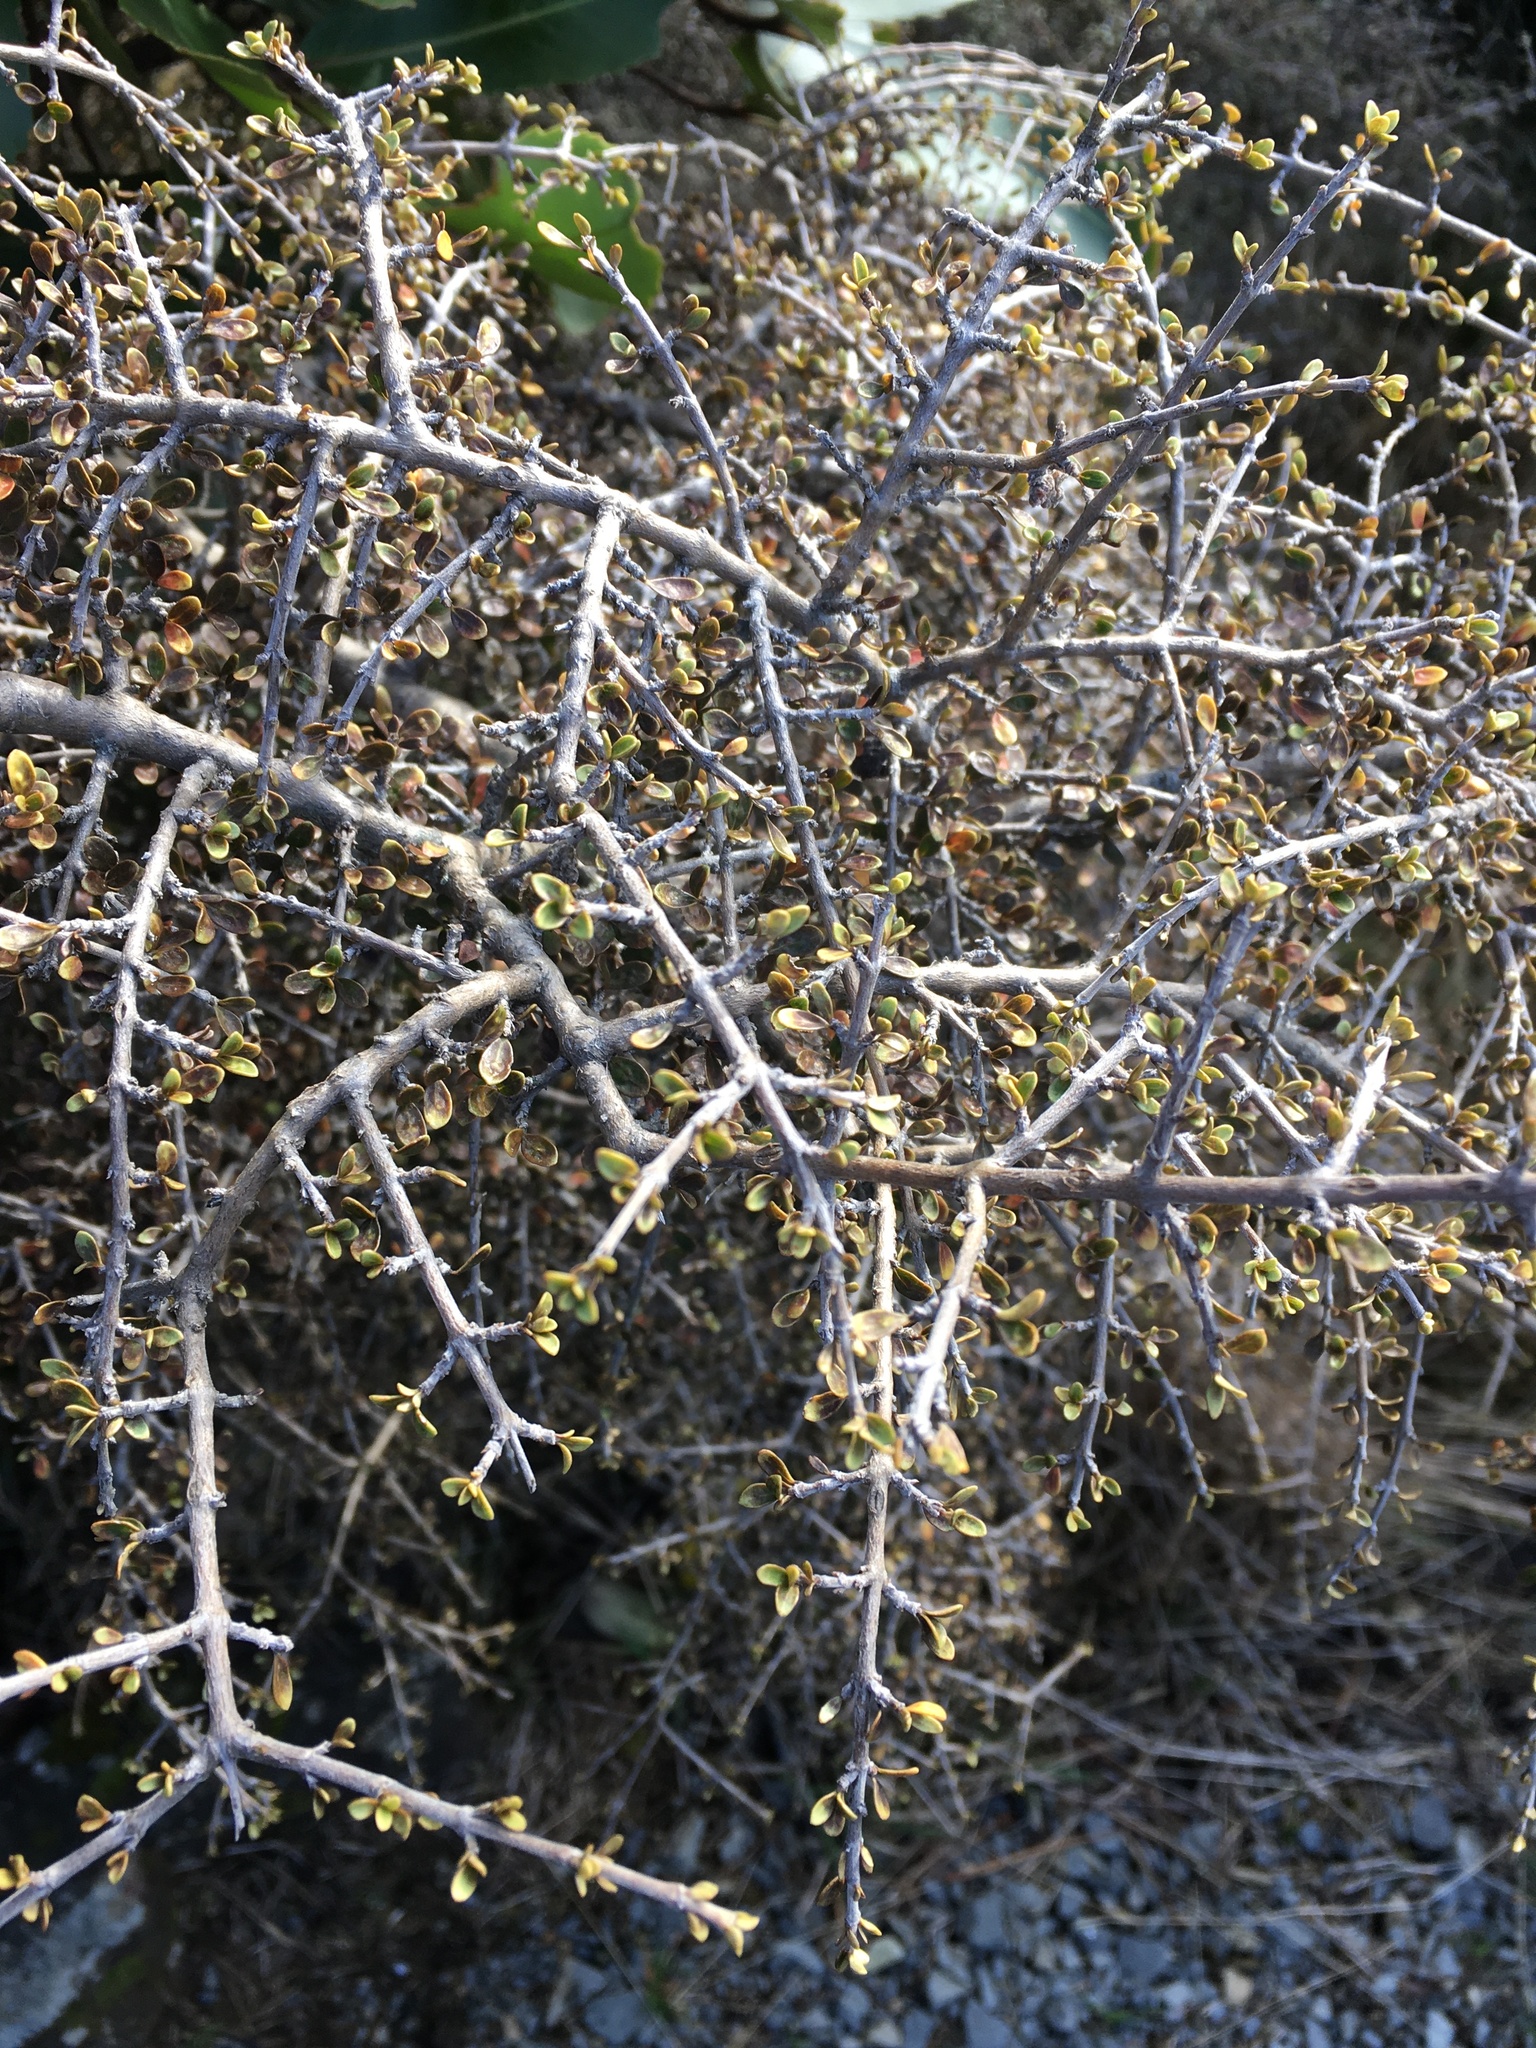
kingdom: Plantae
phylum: Tracheophyta
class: Magnoliopsida
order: Gentianales
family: Rubiaceae
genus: Coprosma
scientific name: Coprosma dumosa
